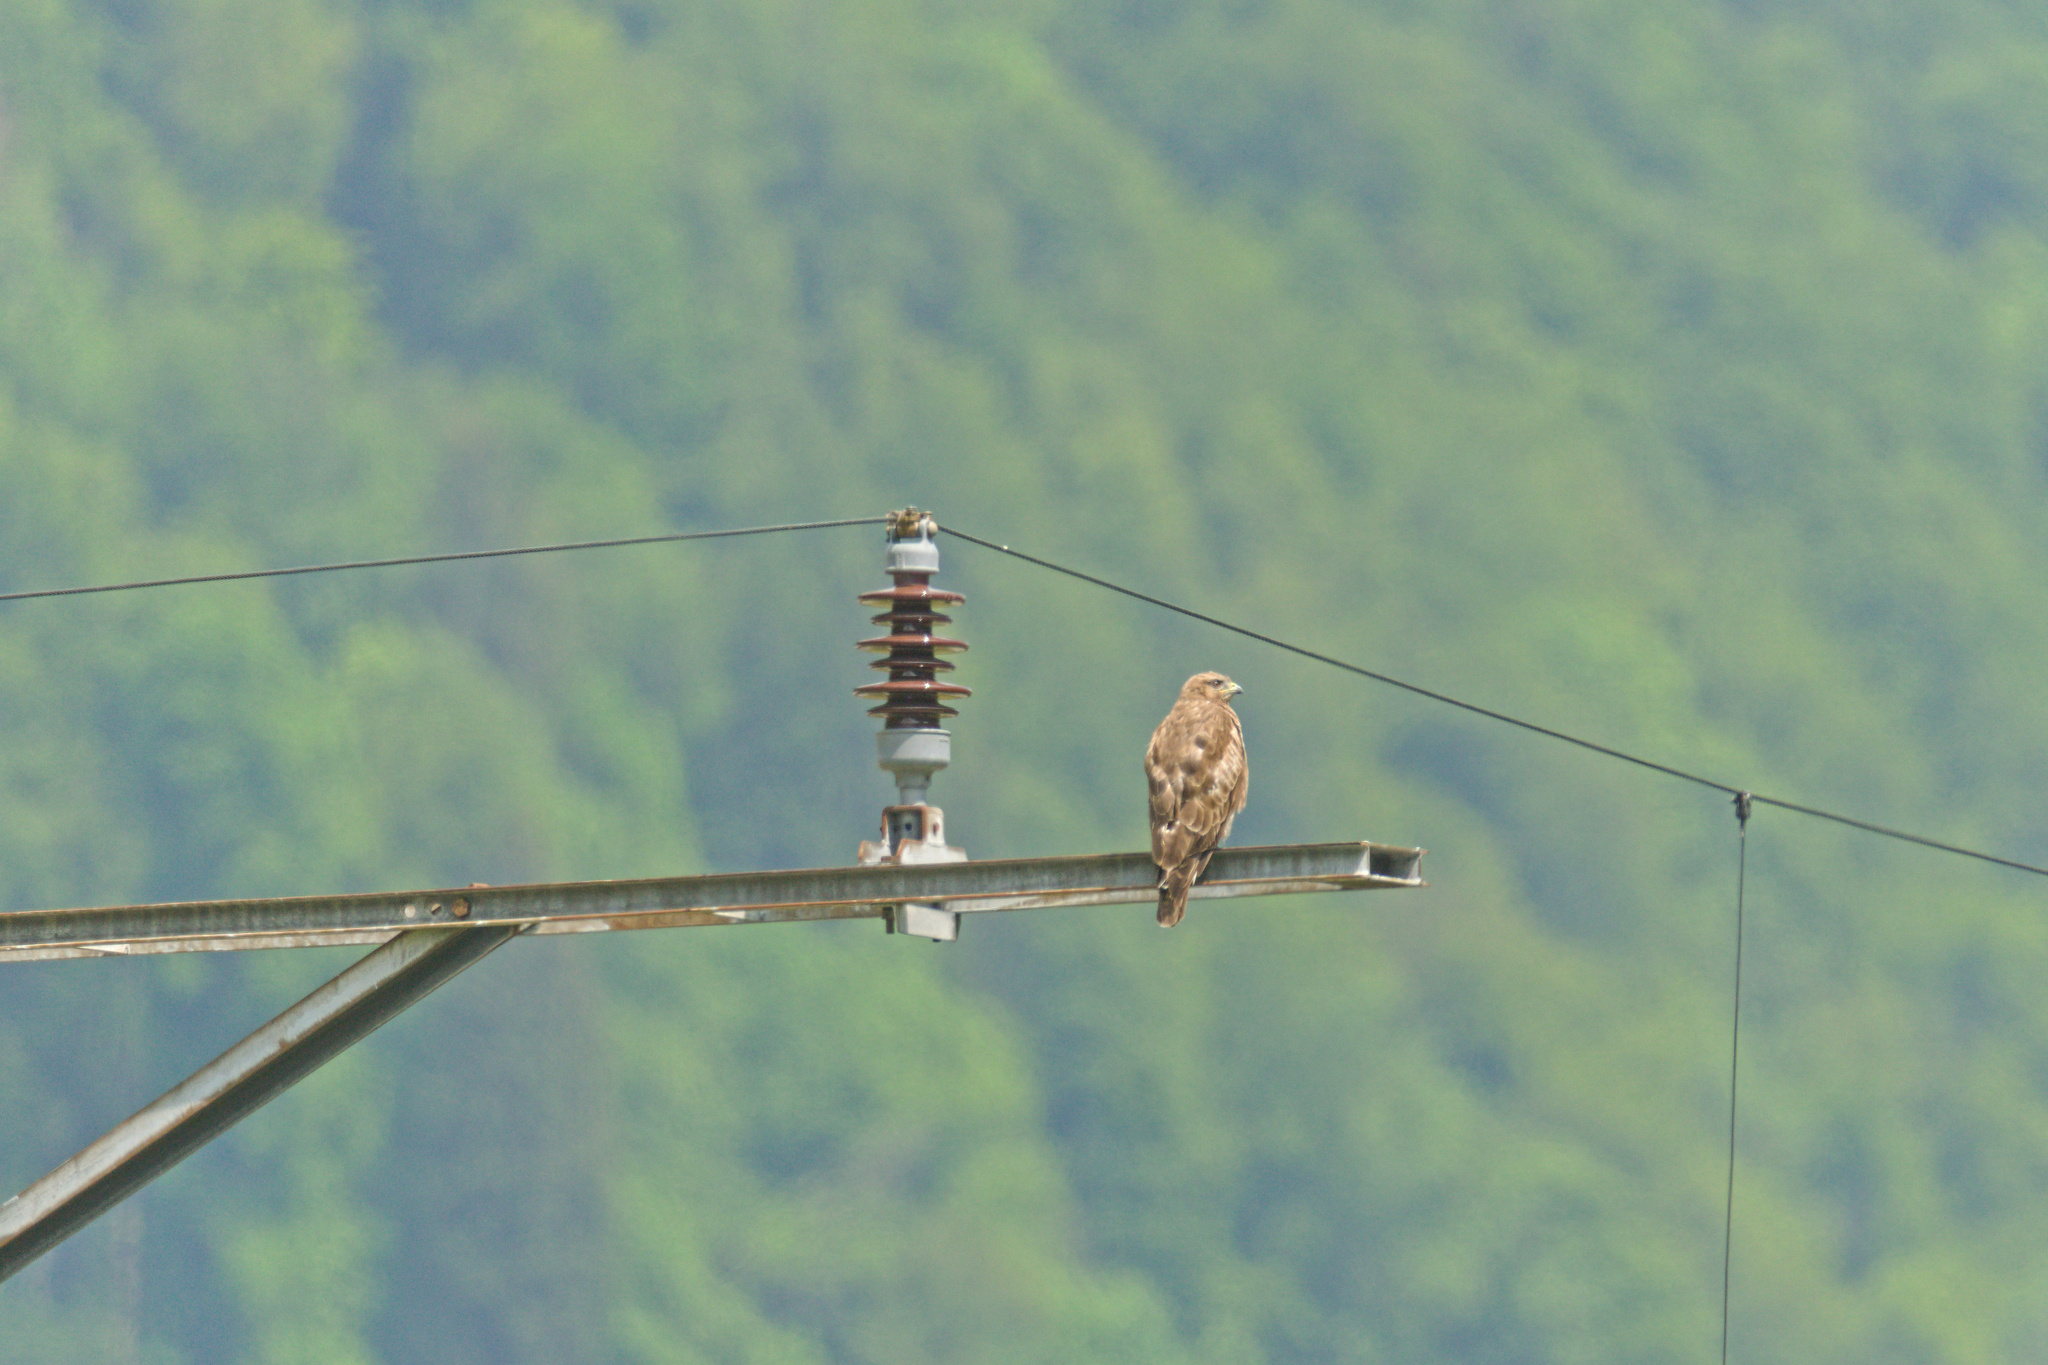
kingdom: Animalia
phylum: Chordata
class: Aves
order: Accipitriformes
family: Accipitridae
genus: Buteo
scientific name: Buteo buteo
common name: Common buzzard
